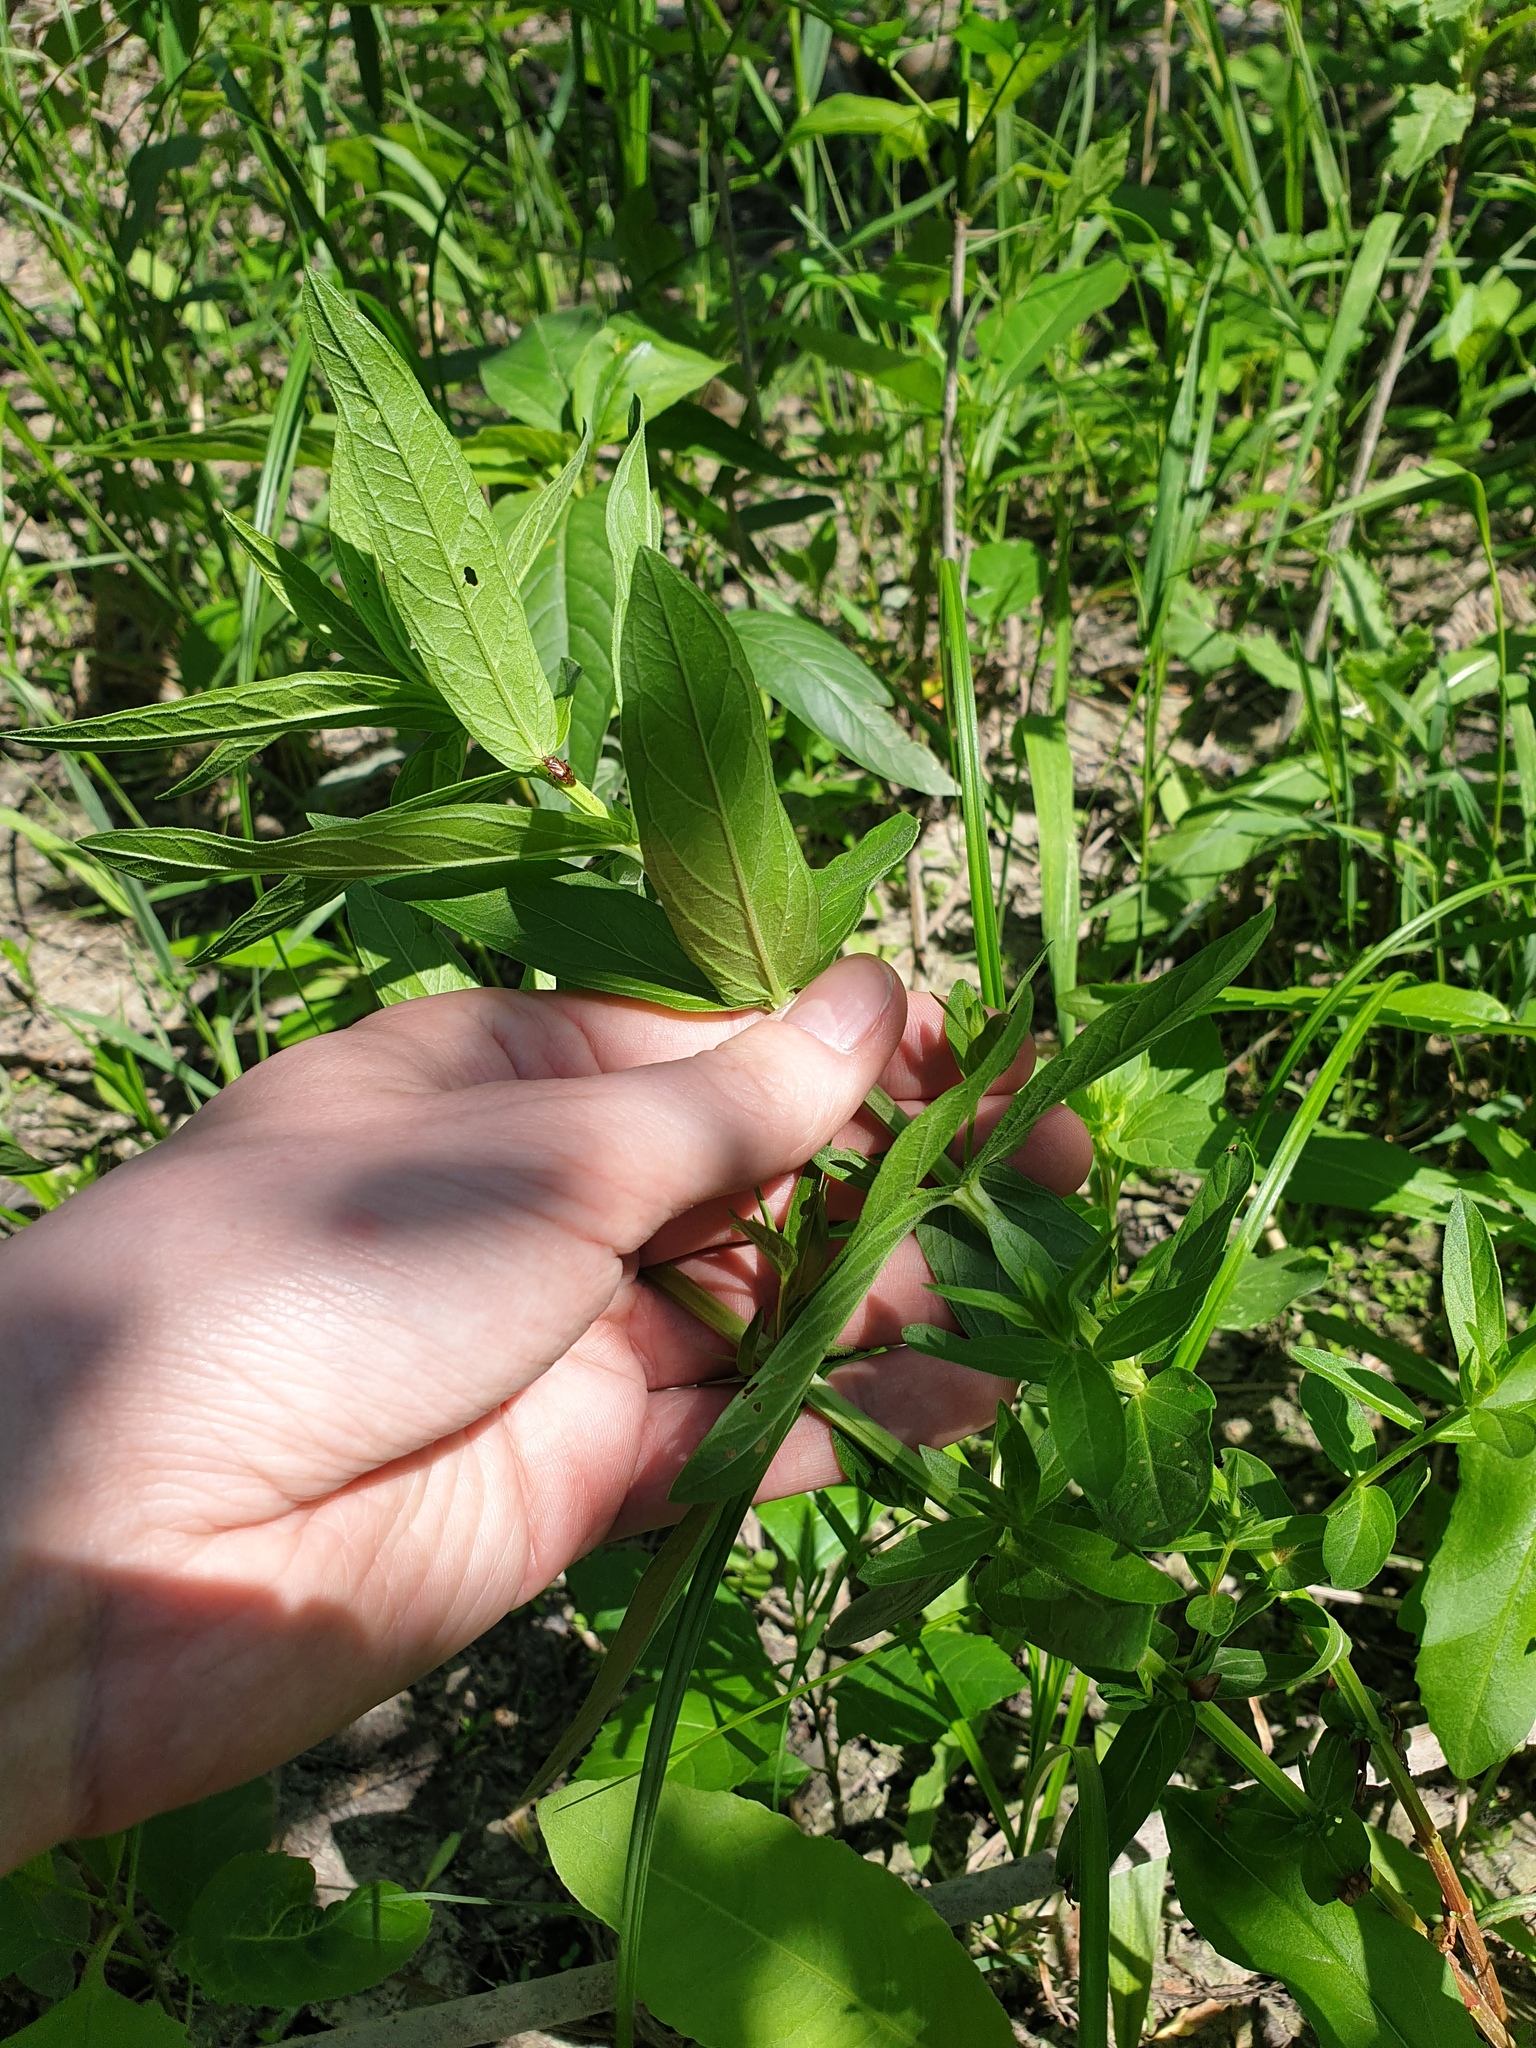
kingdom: Plantae
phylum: Tracheophyta
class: Magnoliopsida
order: Myrtales
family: Lythraceae
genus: Lythrum
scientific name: Lythrum salicaria
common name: Purple loosestrife
